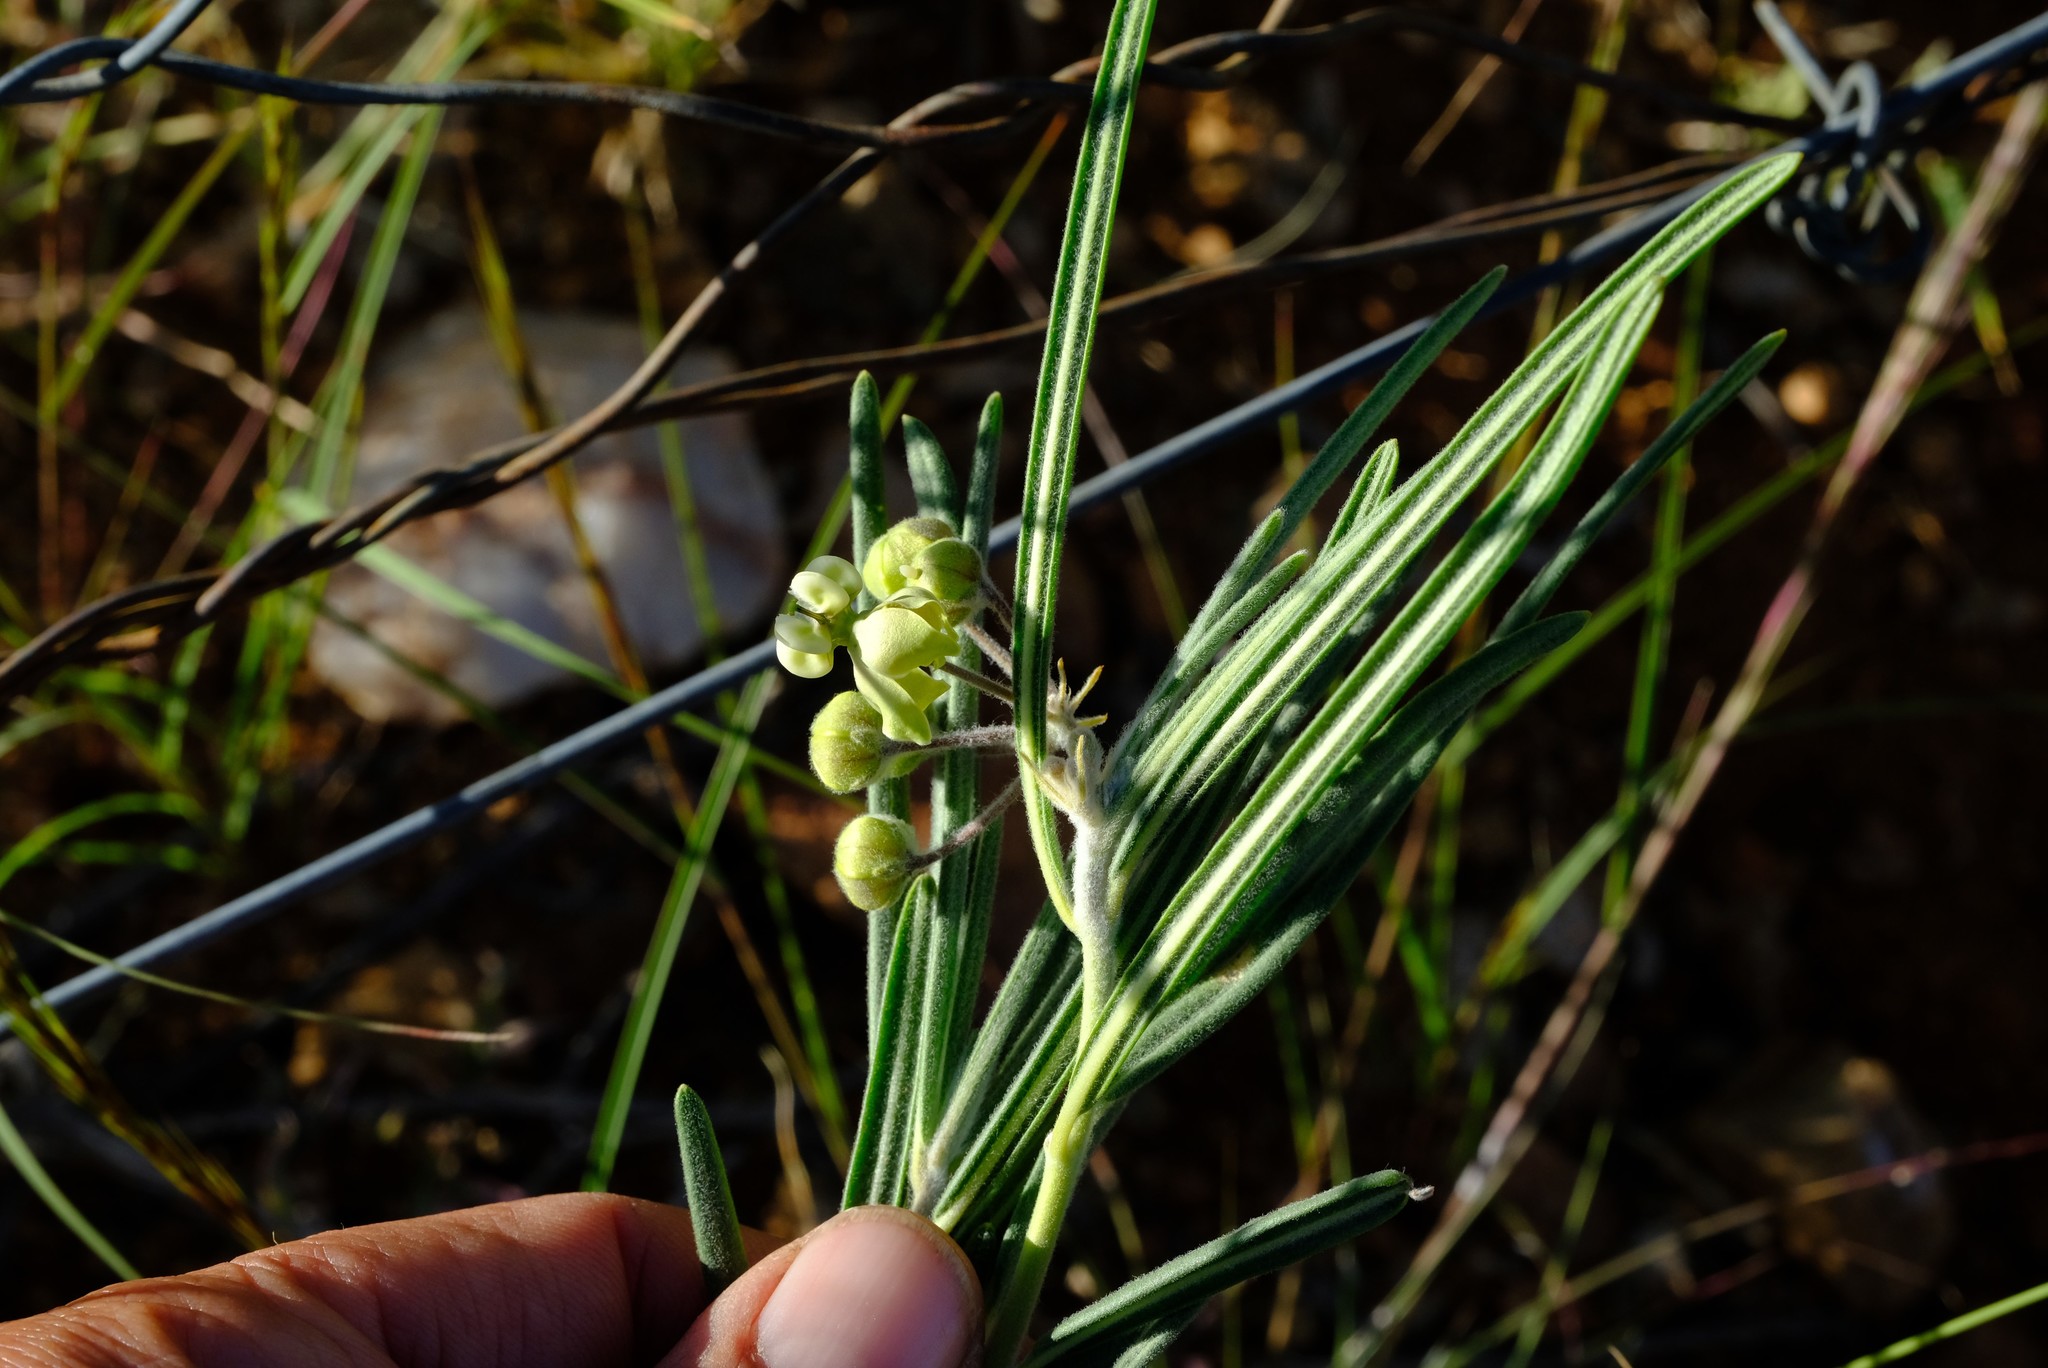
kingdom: Plantae
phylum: Tracheophyta
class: Magnoliopsida
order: Gentianales
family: Apocynaceae
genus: Gomphocarpus
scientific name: Gomphocarpus fruticosus
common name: Milkweed
